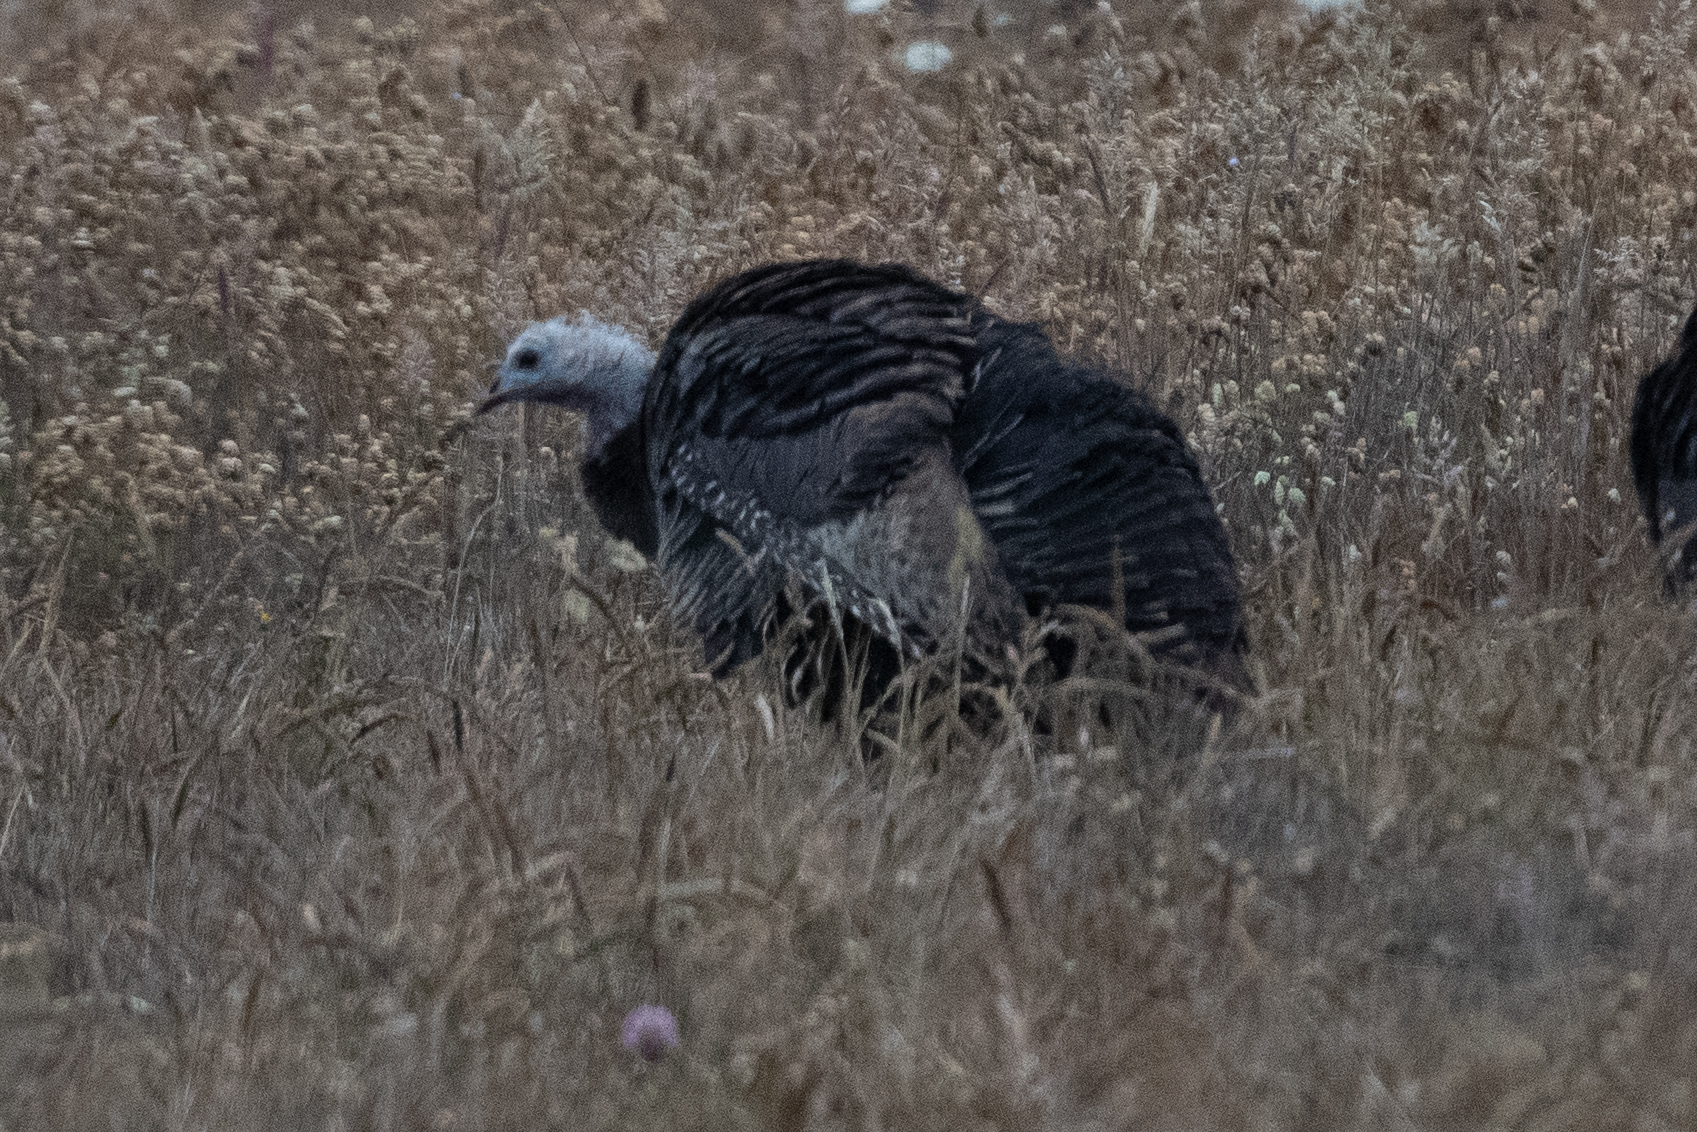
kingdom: Animalia
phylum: Chordata
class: Aves
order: Galliformes
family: Phasianidae
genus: Meleagris
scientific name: Meleagris gallopavo
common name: Wild turkey
